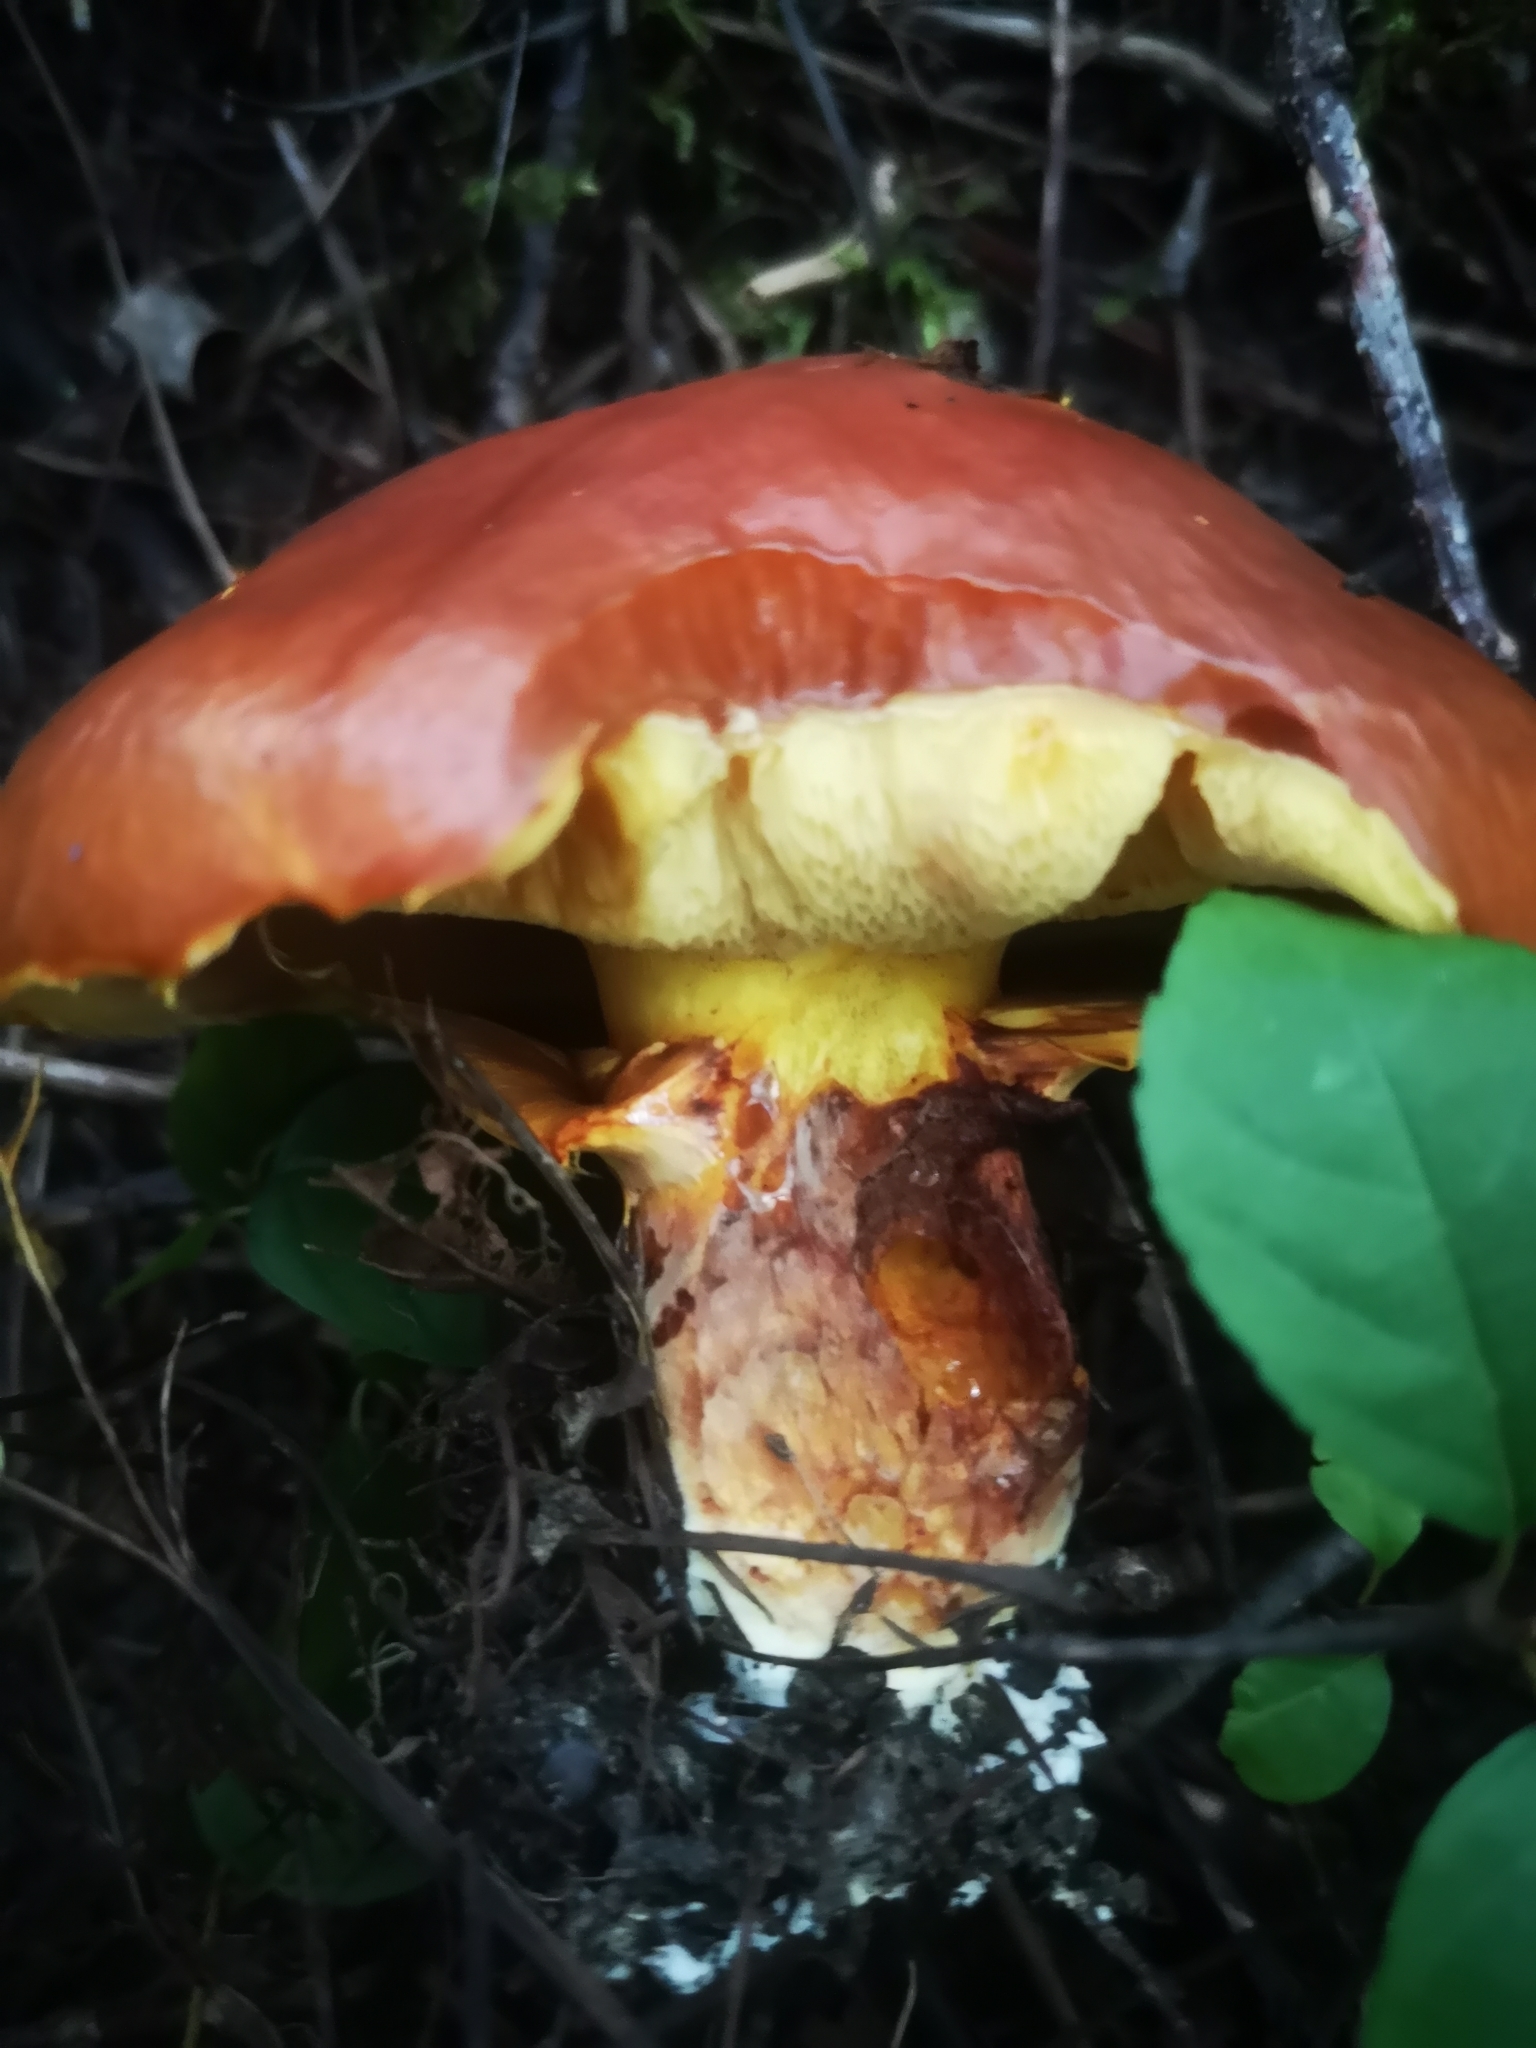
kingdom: Fungi
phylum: Basidiomycota
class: Agaricomycetes
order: Boletales
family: Suillaceae
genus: Suillus
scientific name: Suillus grevillei
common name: Larch bolete
